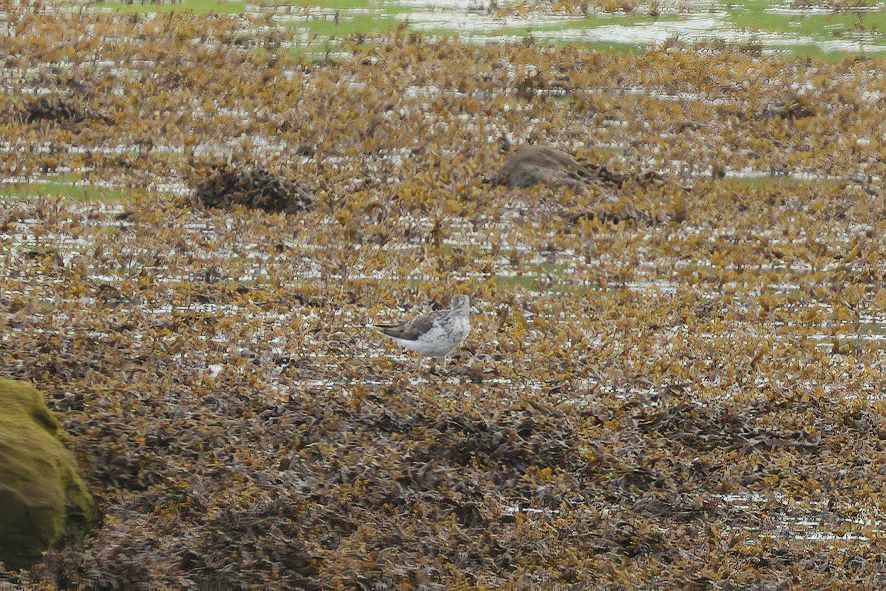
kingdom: Animalia
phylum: Chordata
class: Aves
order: Charadriiformes
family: Scolopacidae
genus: Tringa
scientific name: Tringa nebularia
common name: Common greenshank
